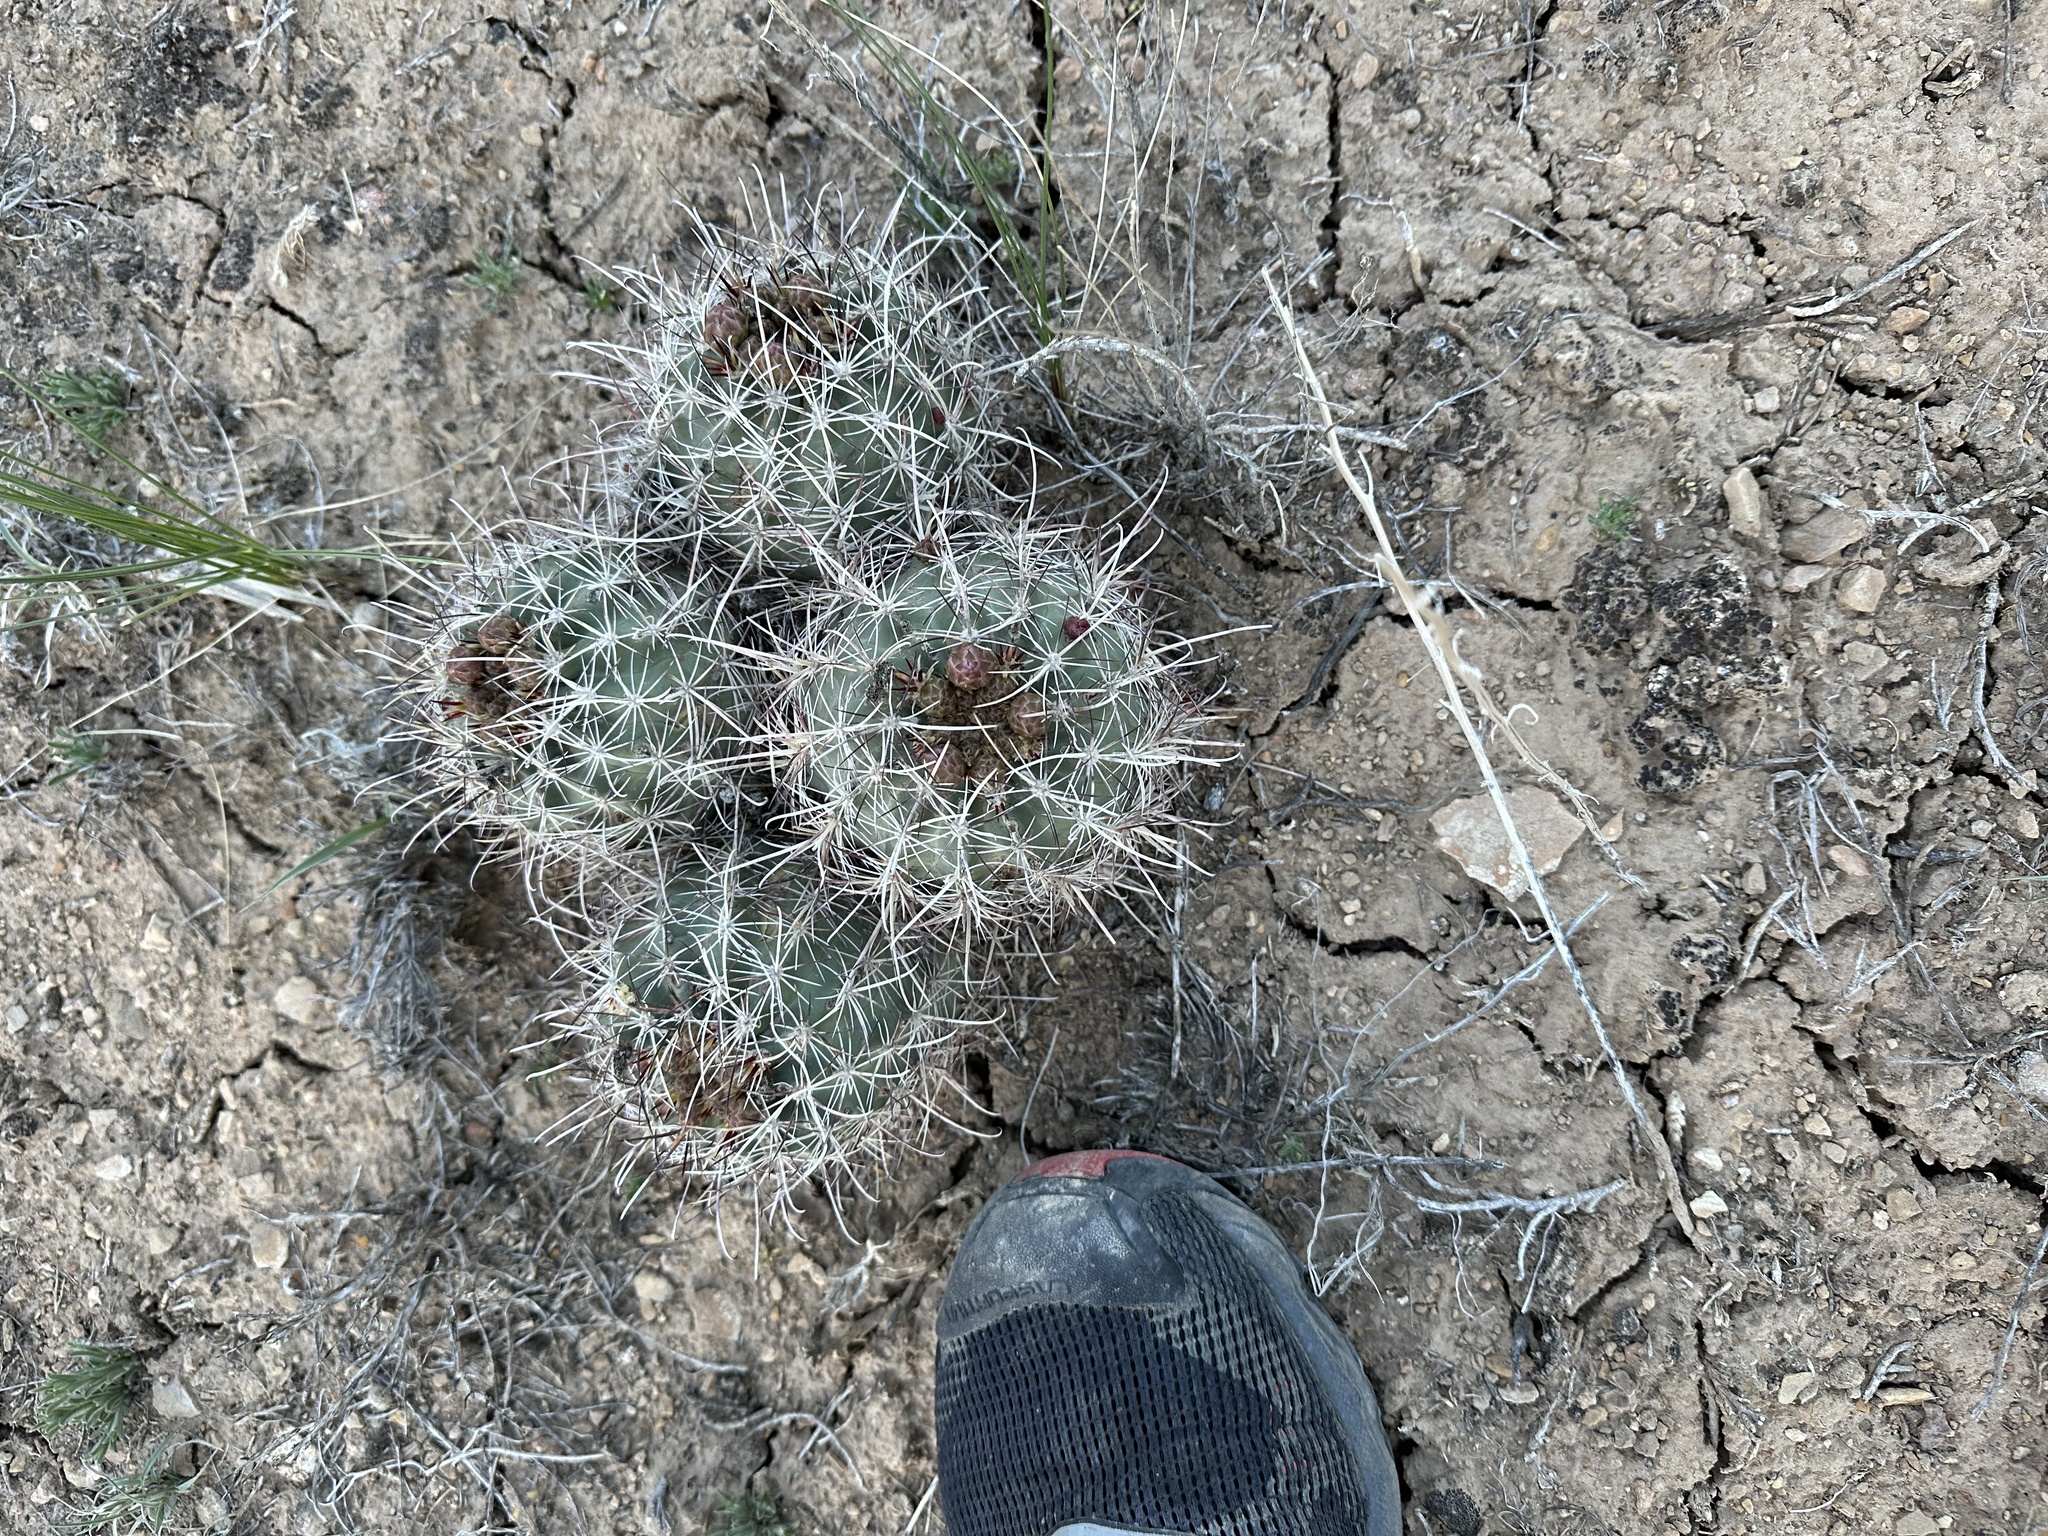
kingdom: Plantae
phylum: Tracheophyta
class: Magnoliopsida
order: Caryophyllales
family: Cactaceae
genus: Sclerocactus
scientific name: Sclerocactus parviflorus
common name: Small-flower fishhook cactus
